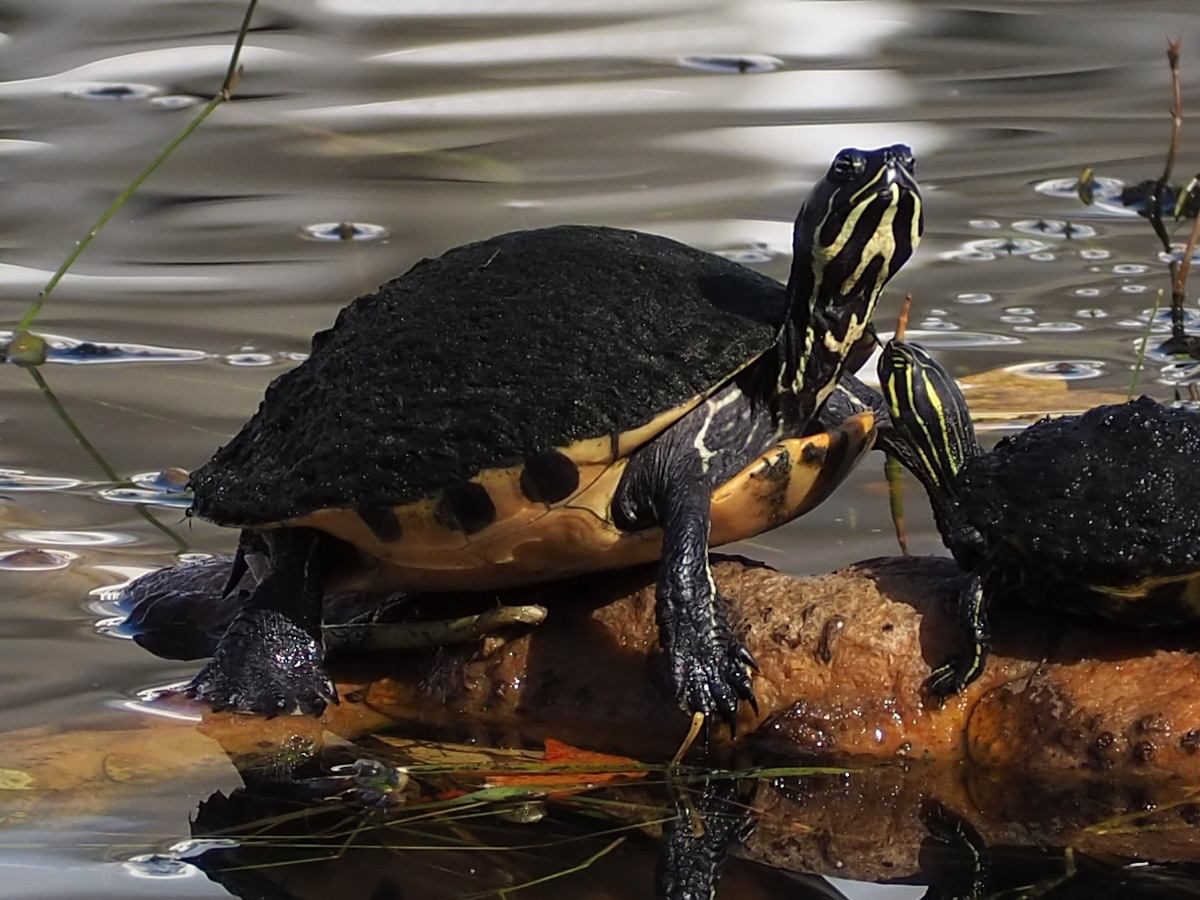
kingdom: Animalia
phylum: Chordata
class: Testudines
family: Emydidae
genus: Pseudemys
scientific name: Pseudemys nelsoni
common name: Florida red-bellied turtle
